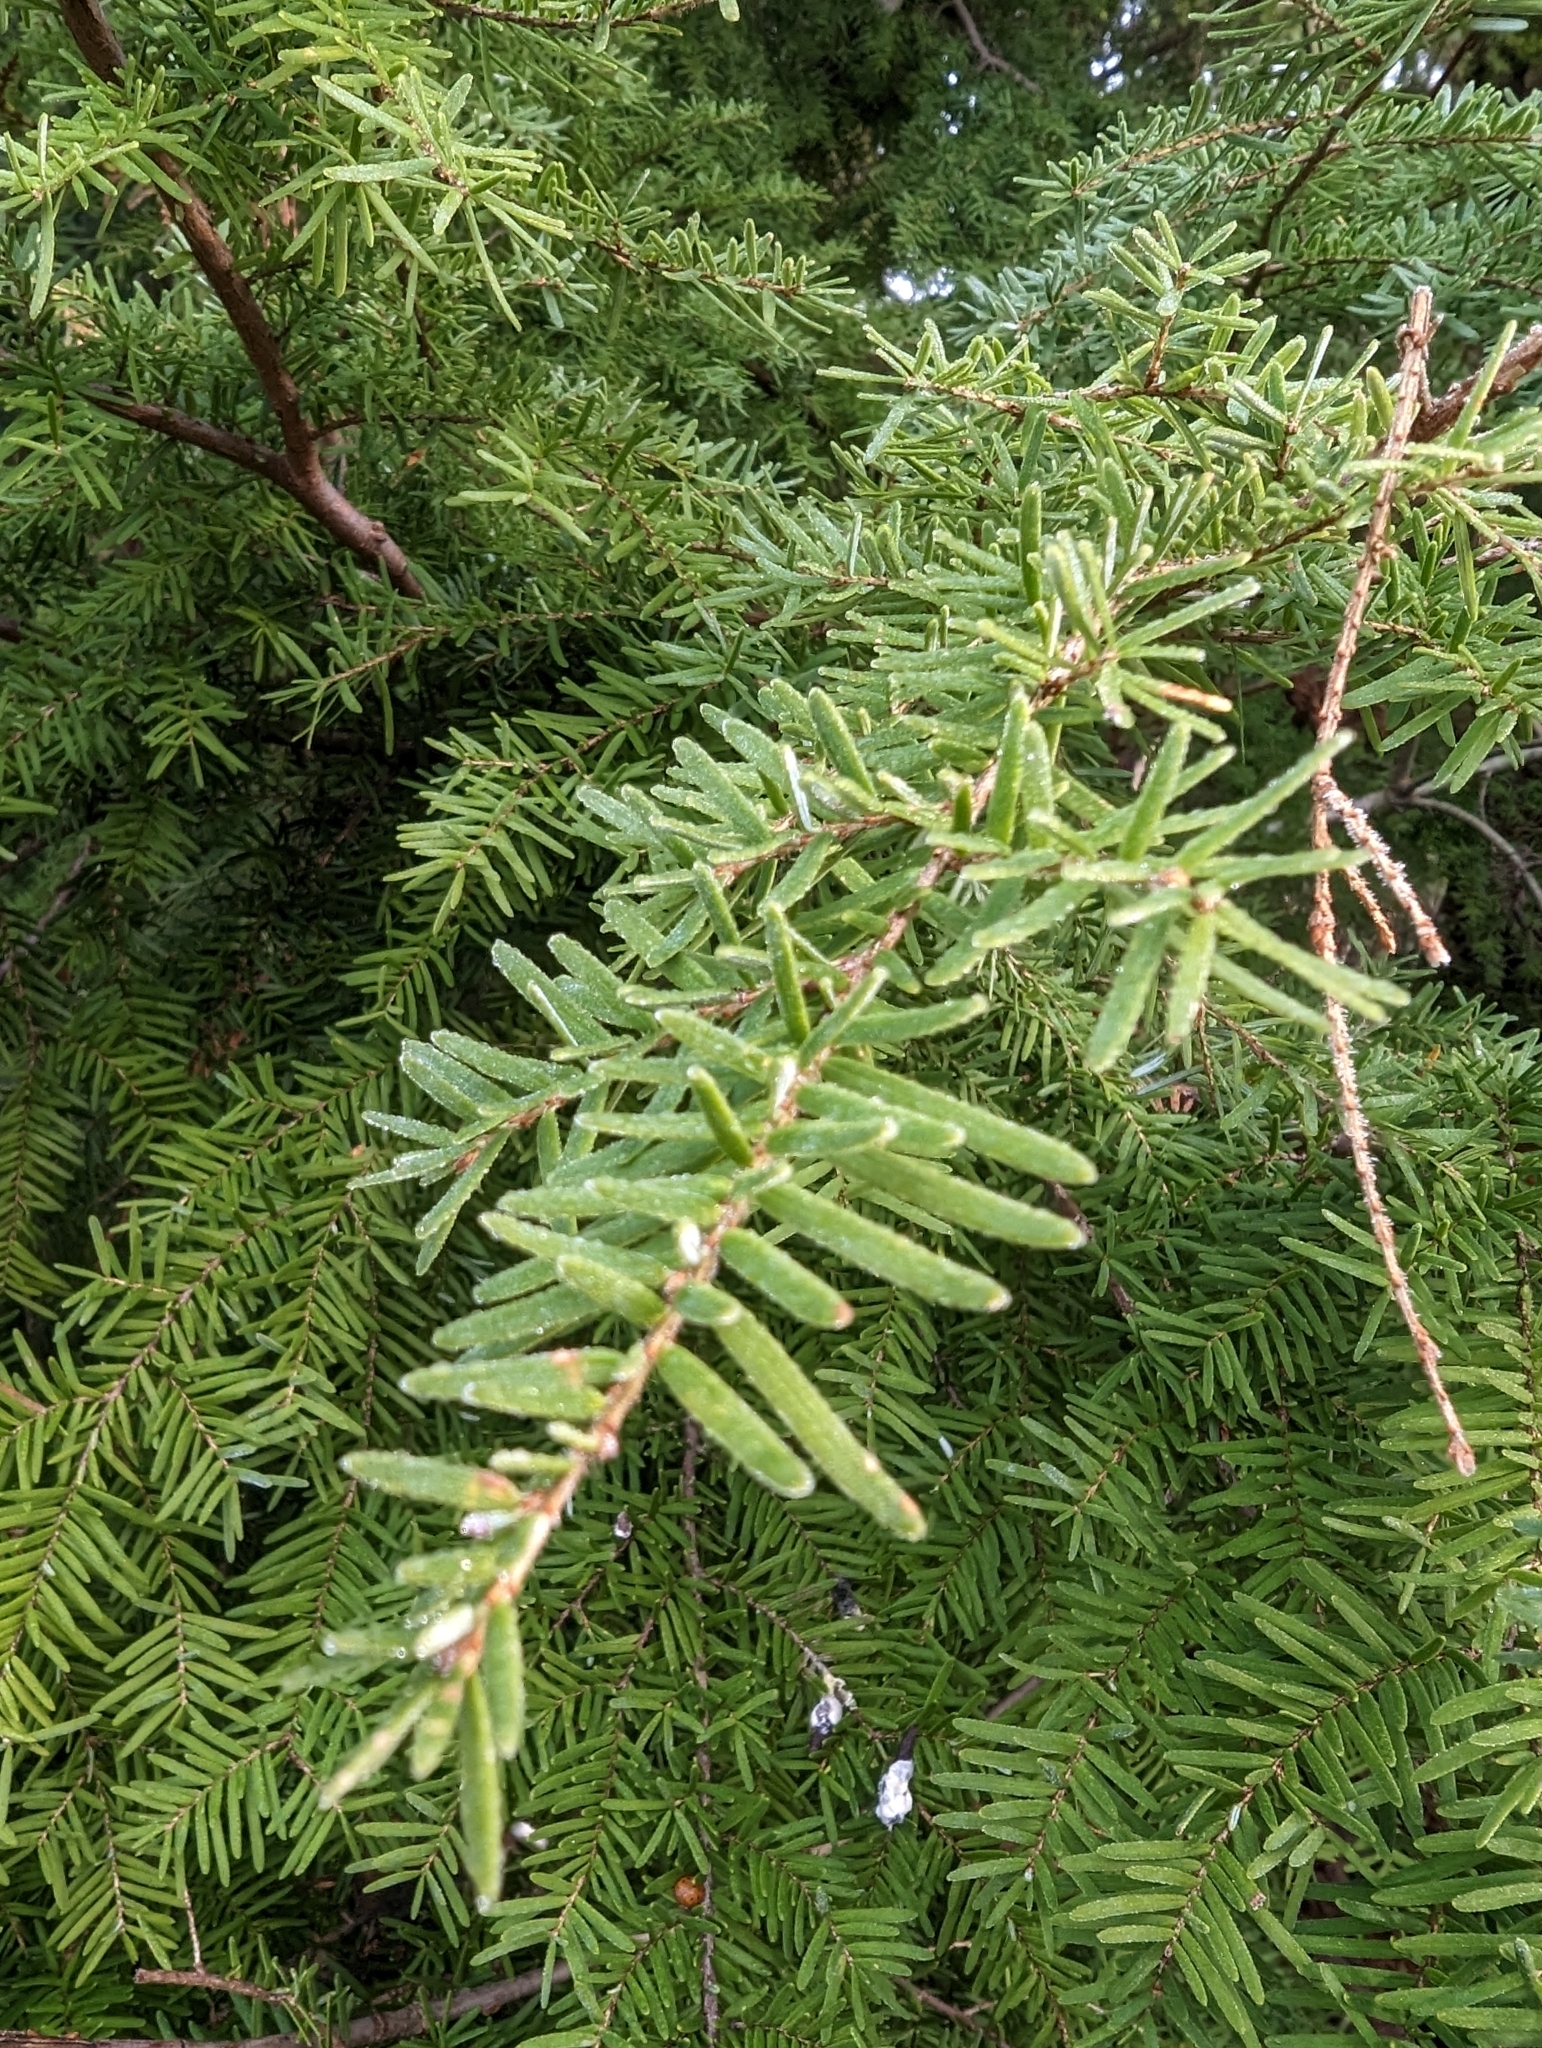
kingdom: Plantae
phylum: Tracheophyta
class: Pinopsida
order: Pinales
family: Pinaceae
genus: Tsuga
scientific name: Tsuga heterophylla
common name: Western hemlock
